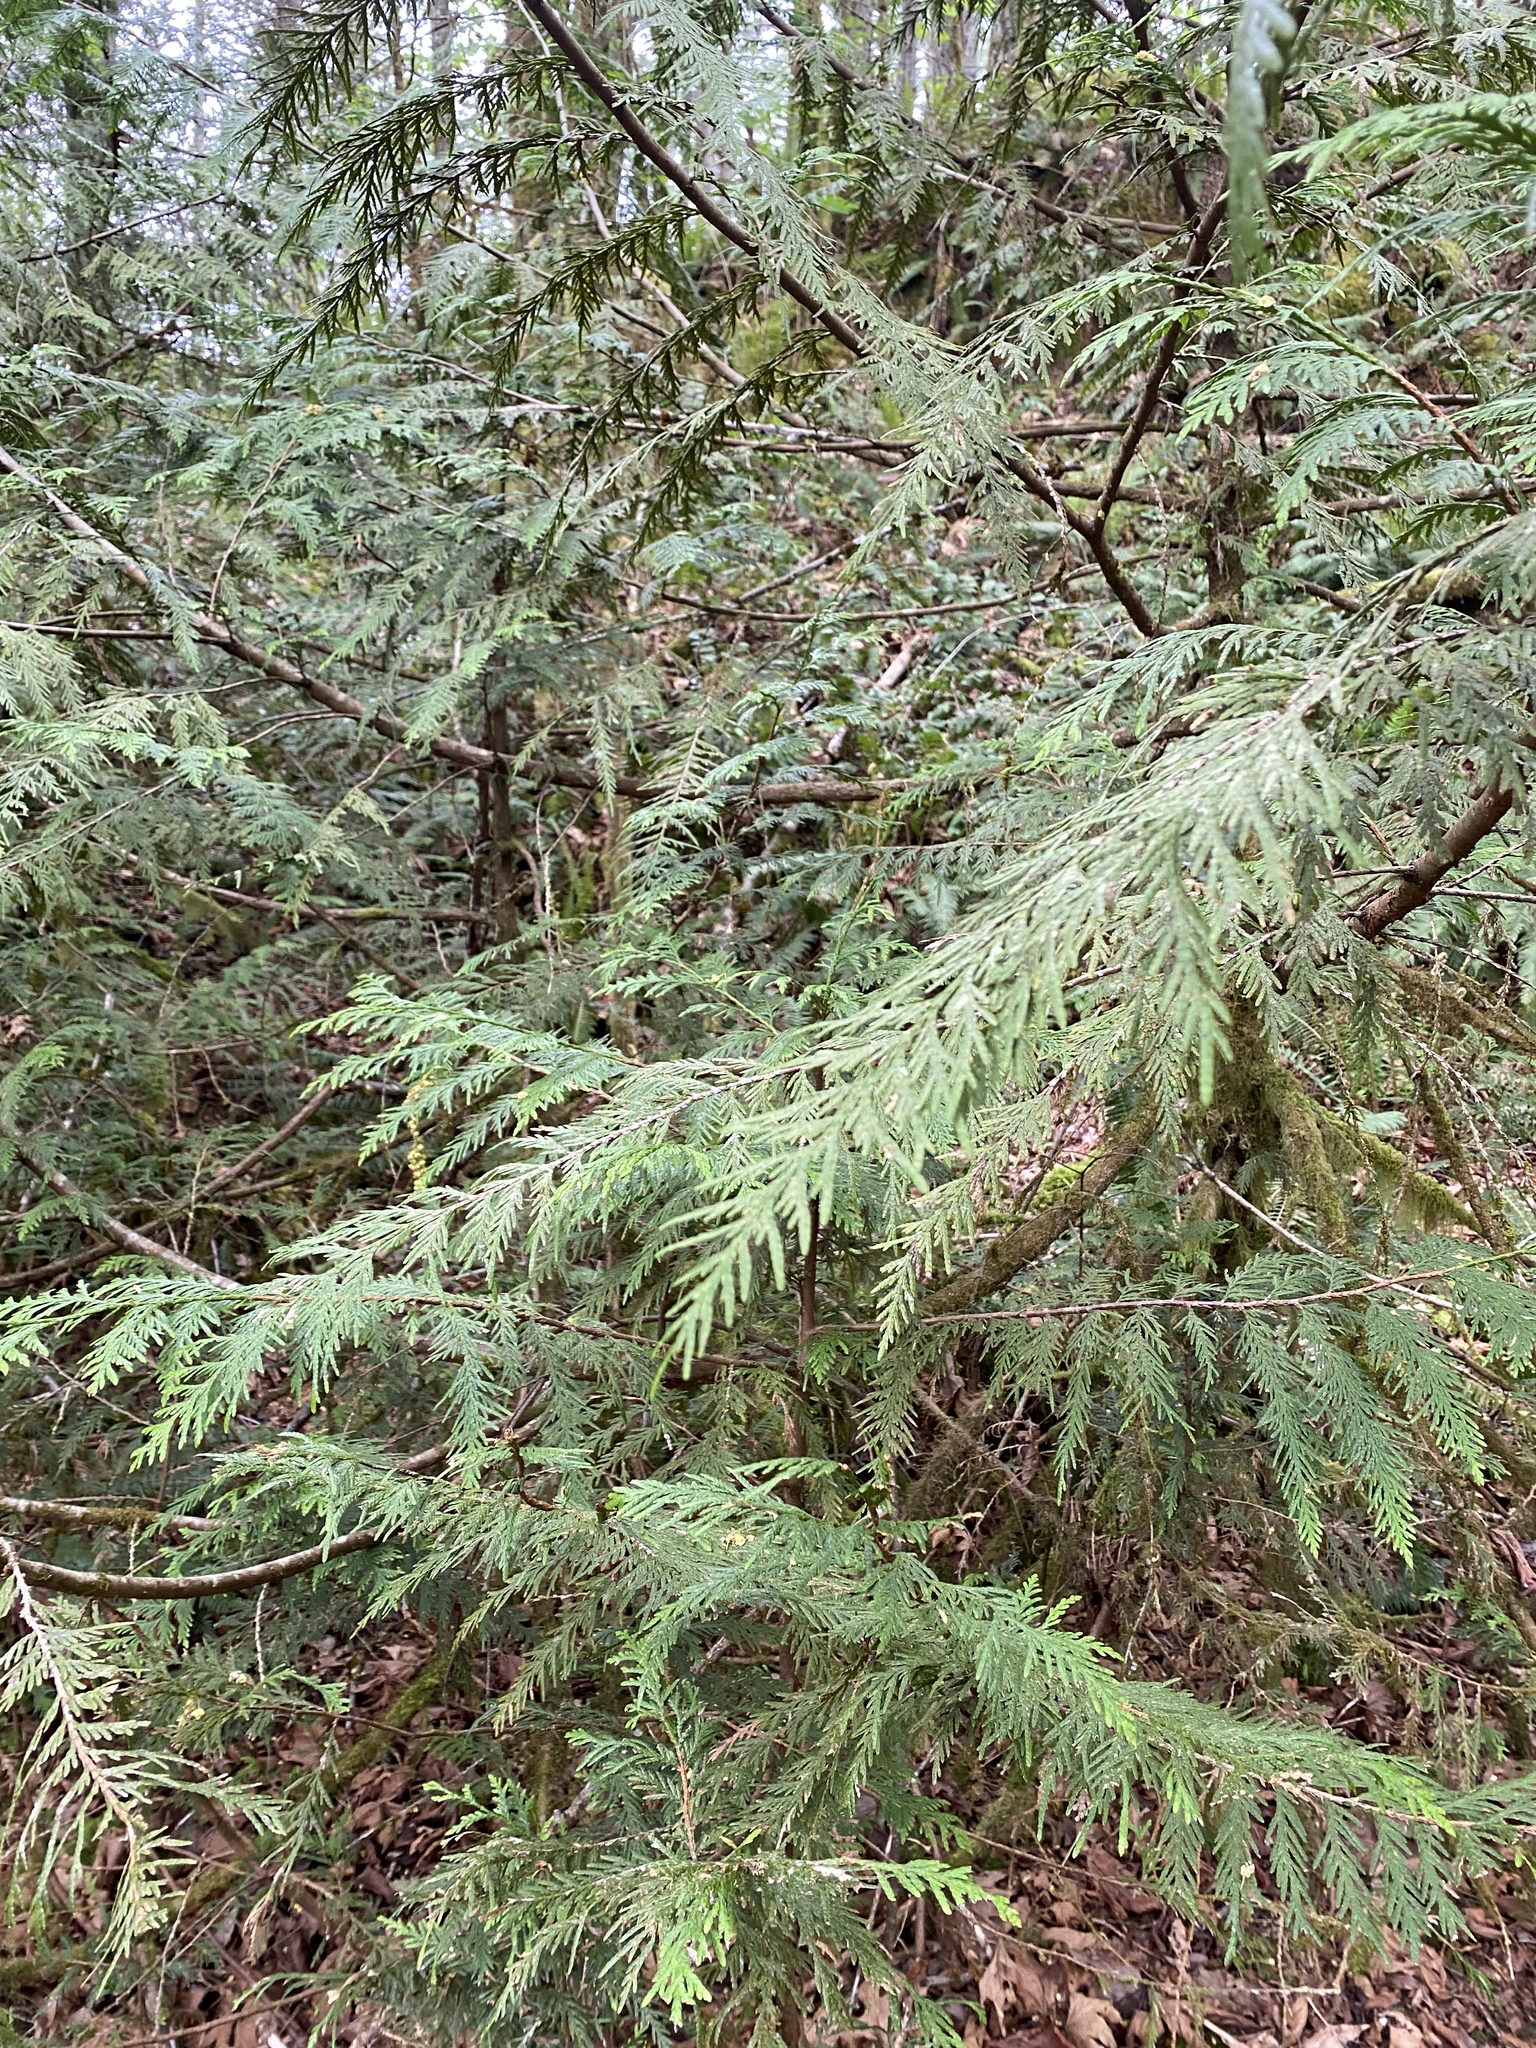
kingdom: Plantae
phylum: Tracheophyta
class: Pinopsida
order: Pinales
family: Cupressaceae
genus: Thuja
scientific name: Thuja plicata
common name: Western red-cedar
